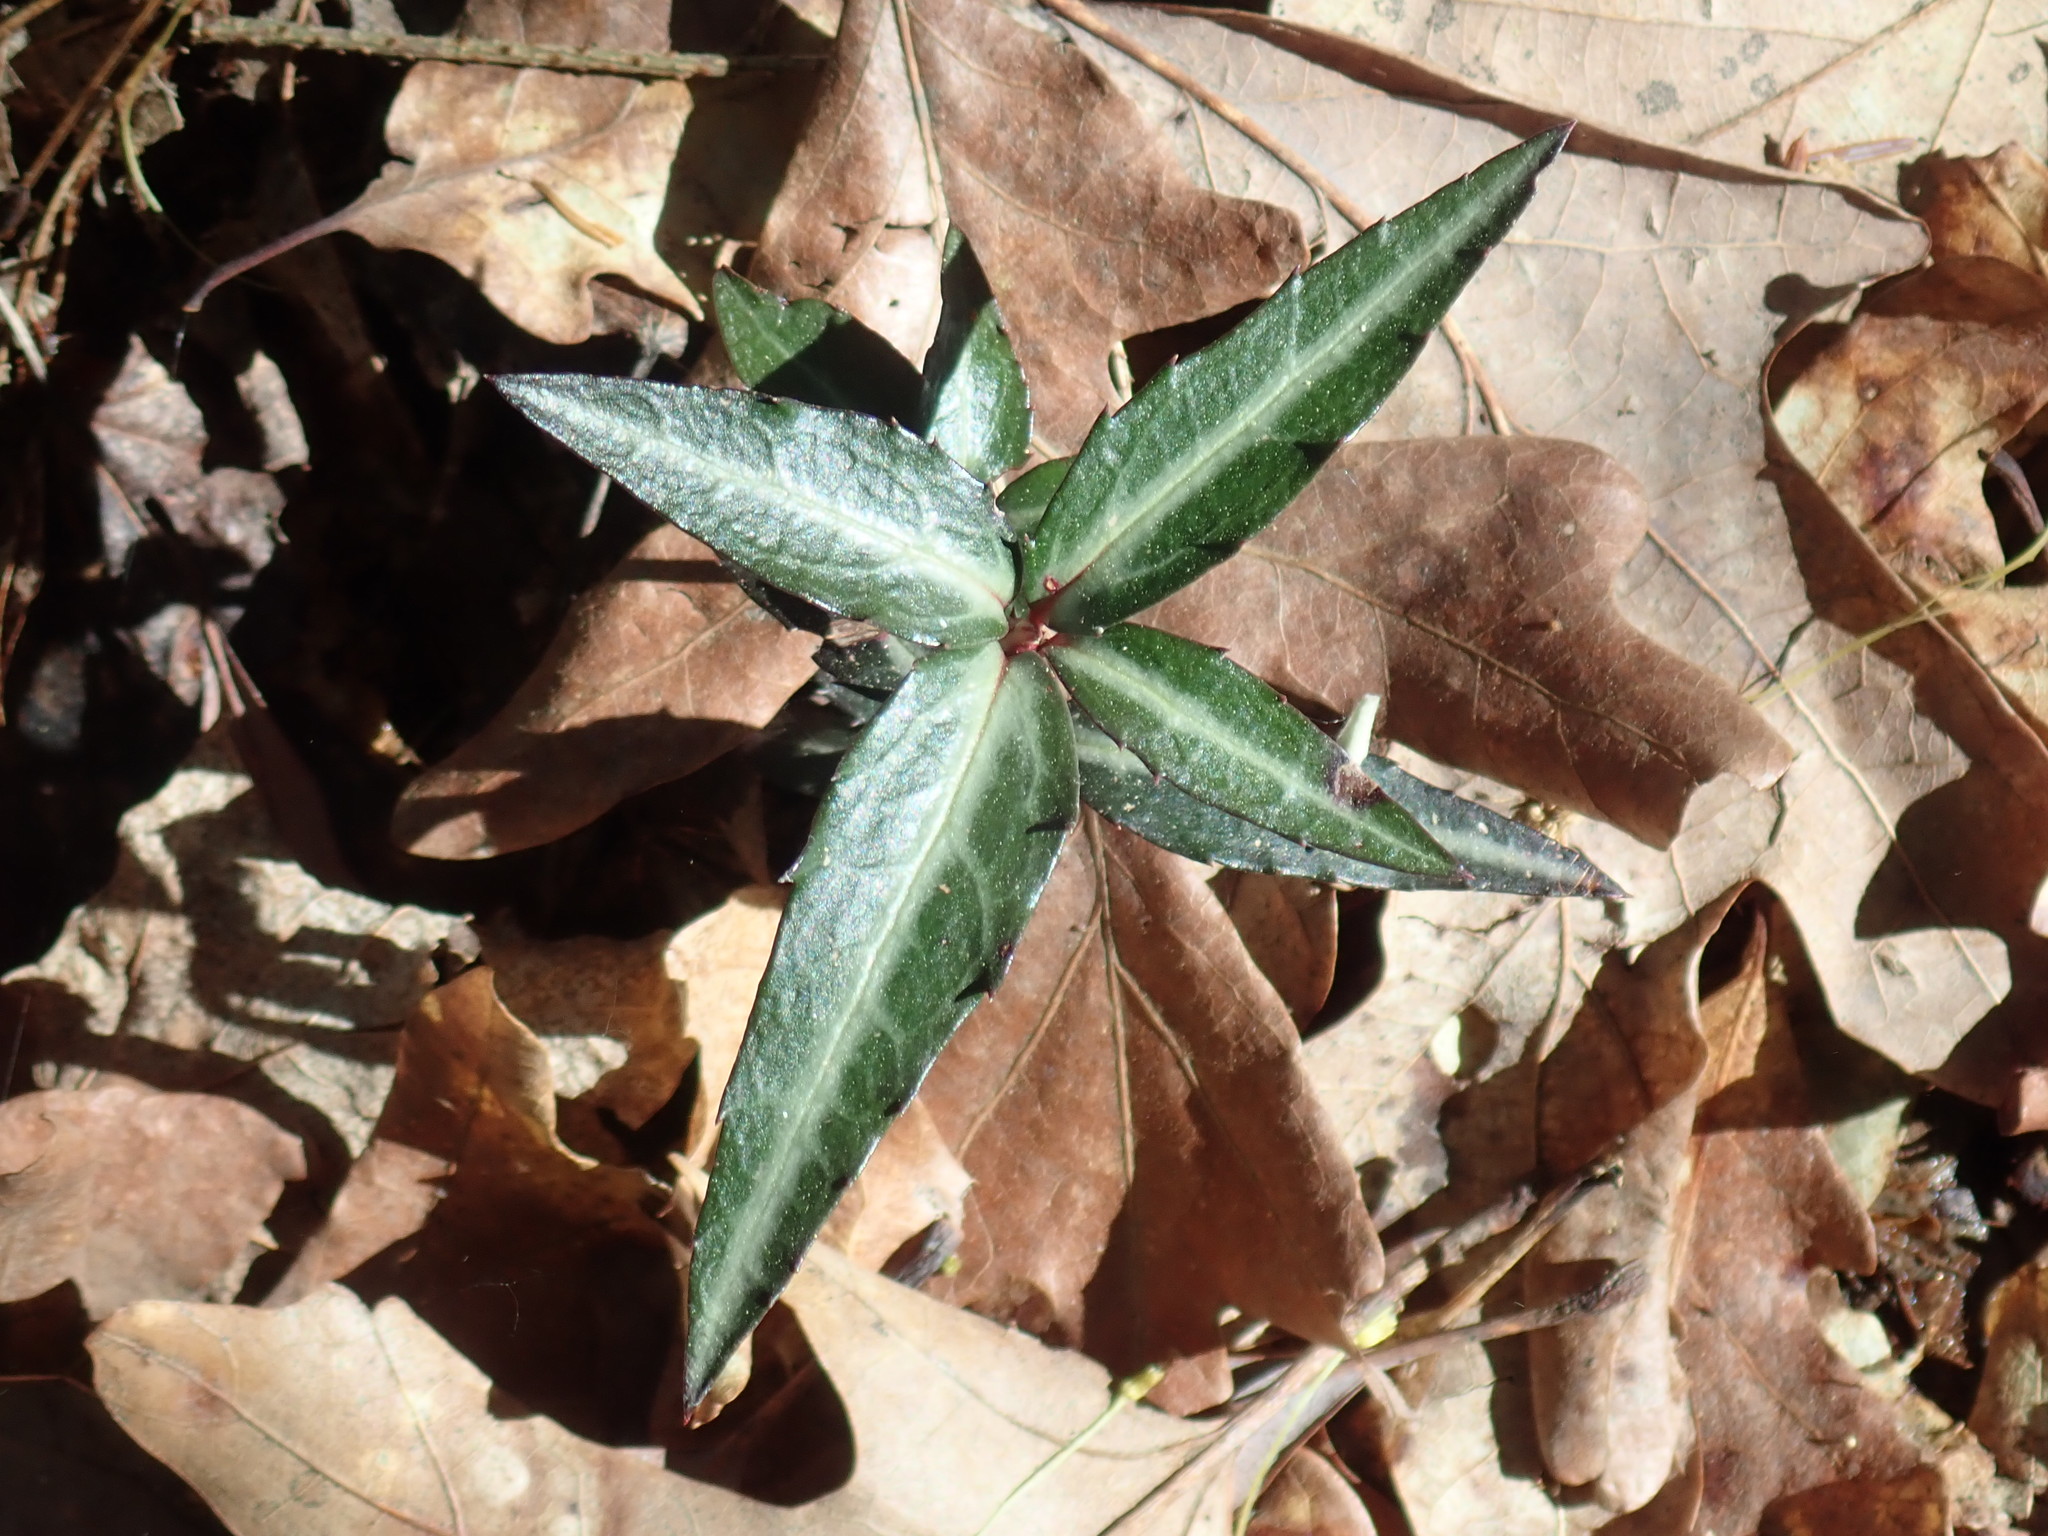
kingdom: Plantae
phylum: Tracheophyta
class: Magnoliopsida
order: Ericales
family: Ericaceae
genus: Chimaphila
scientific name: Chimaphila maculata
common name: Spotted pipsissewa
